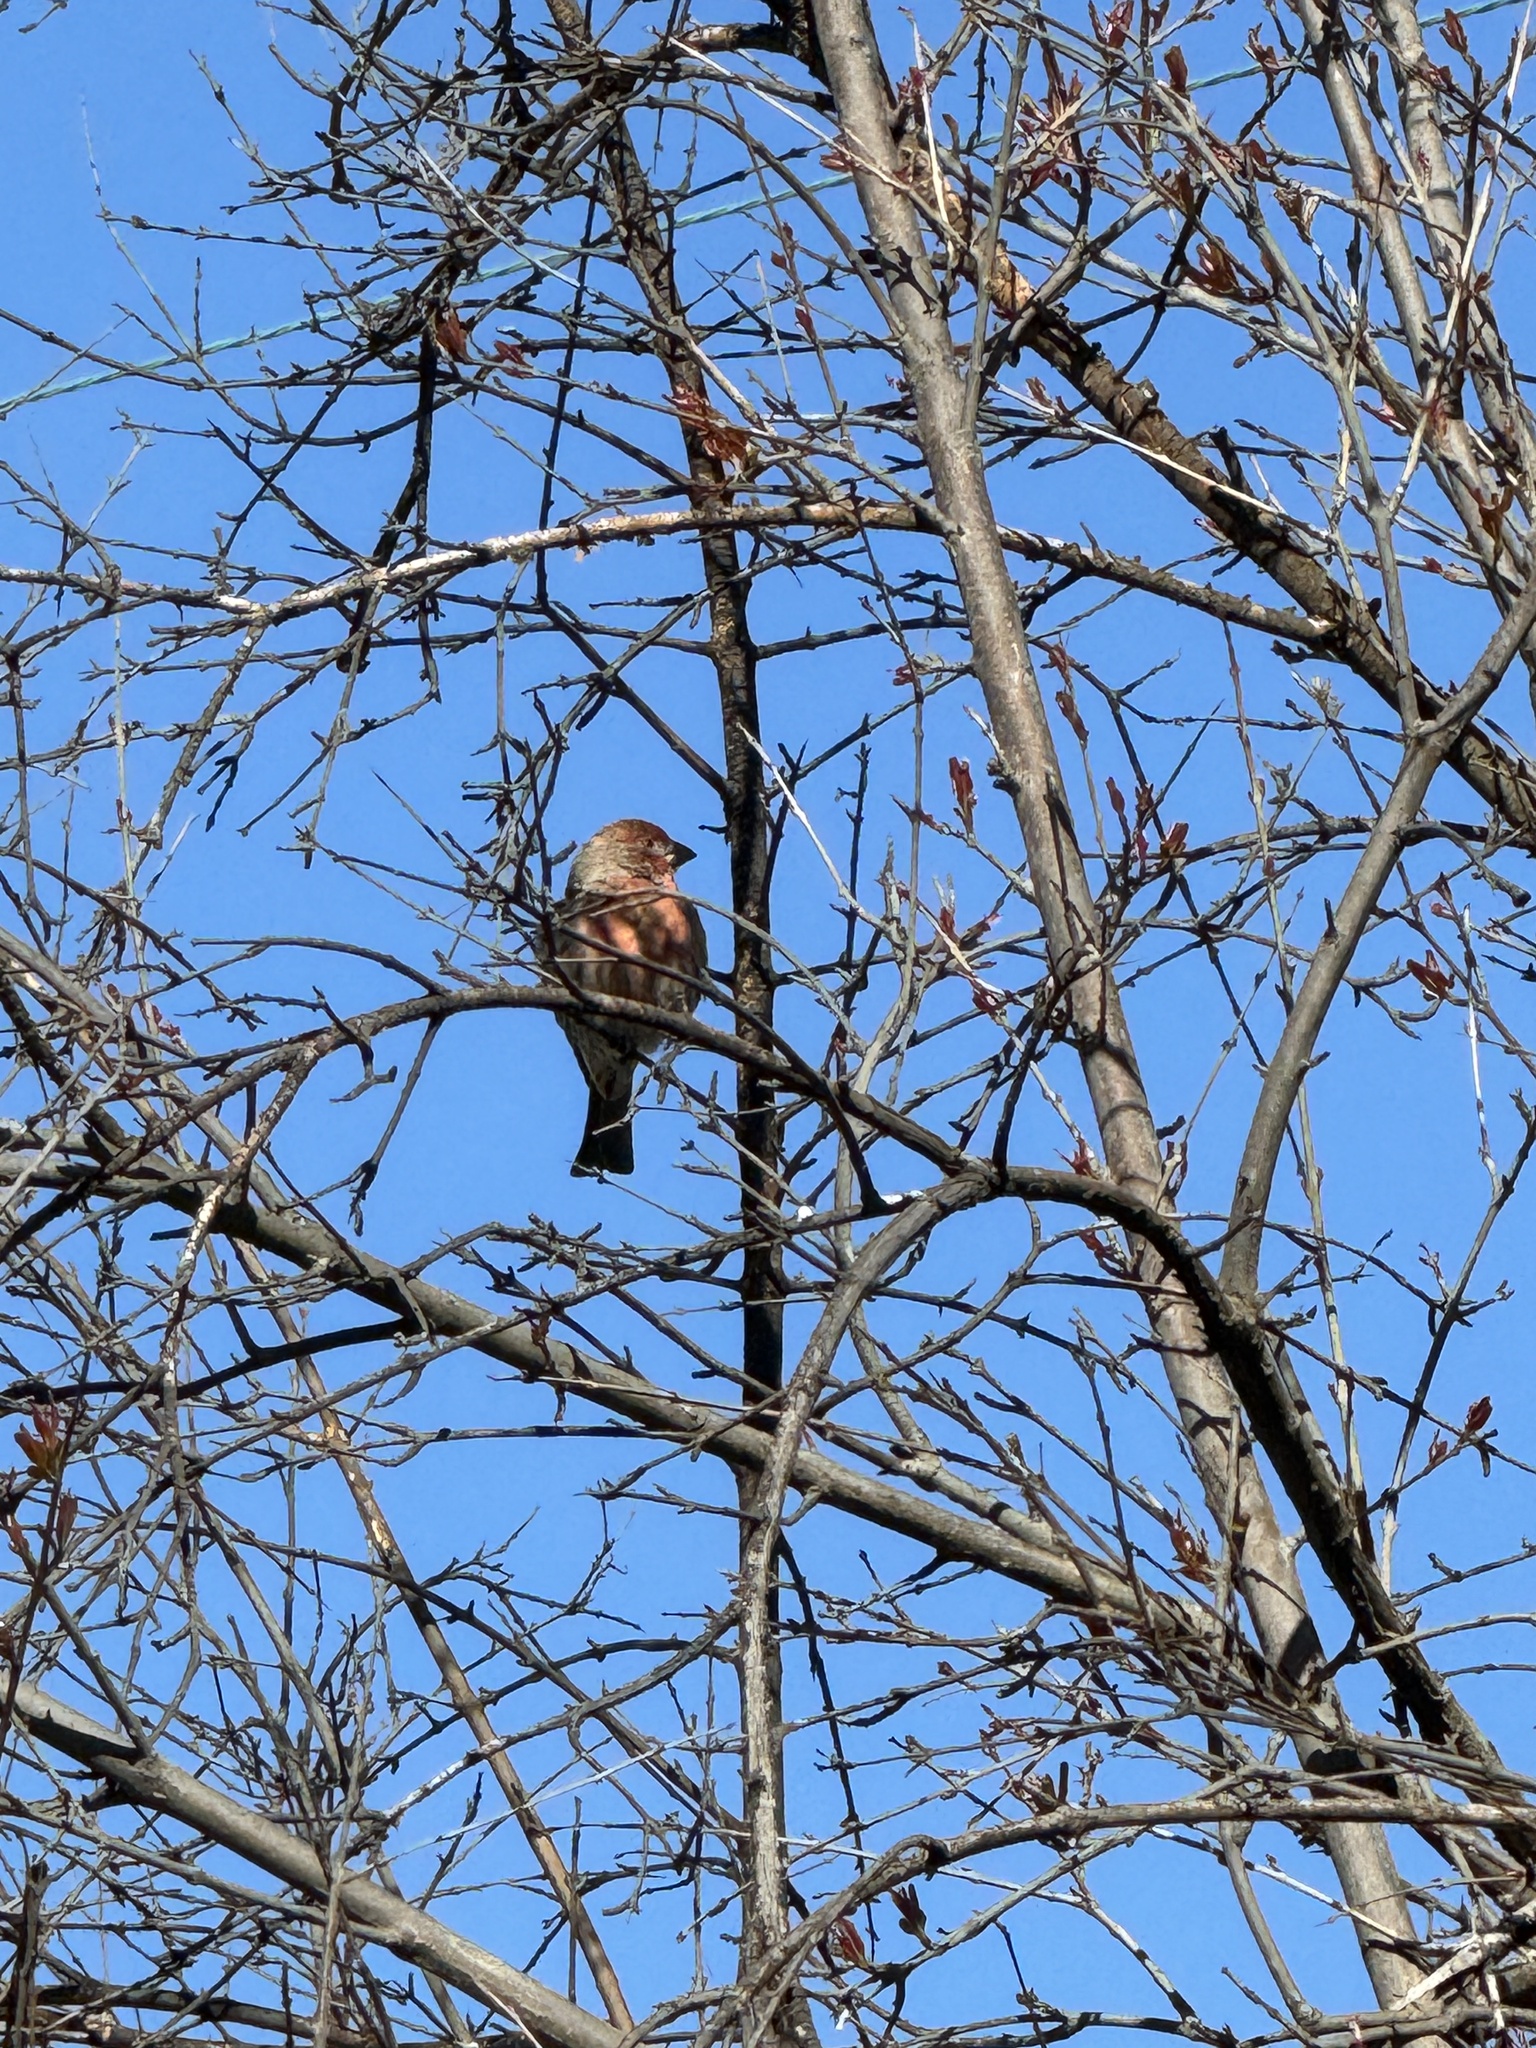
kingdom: Animalia
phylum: Chordata
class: Aves
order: Passeriformes
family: Fringillidae
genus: Haemorhous
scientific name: Haemorhous mexicanus
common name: House finch
